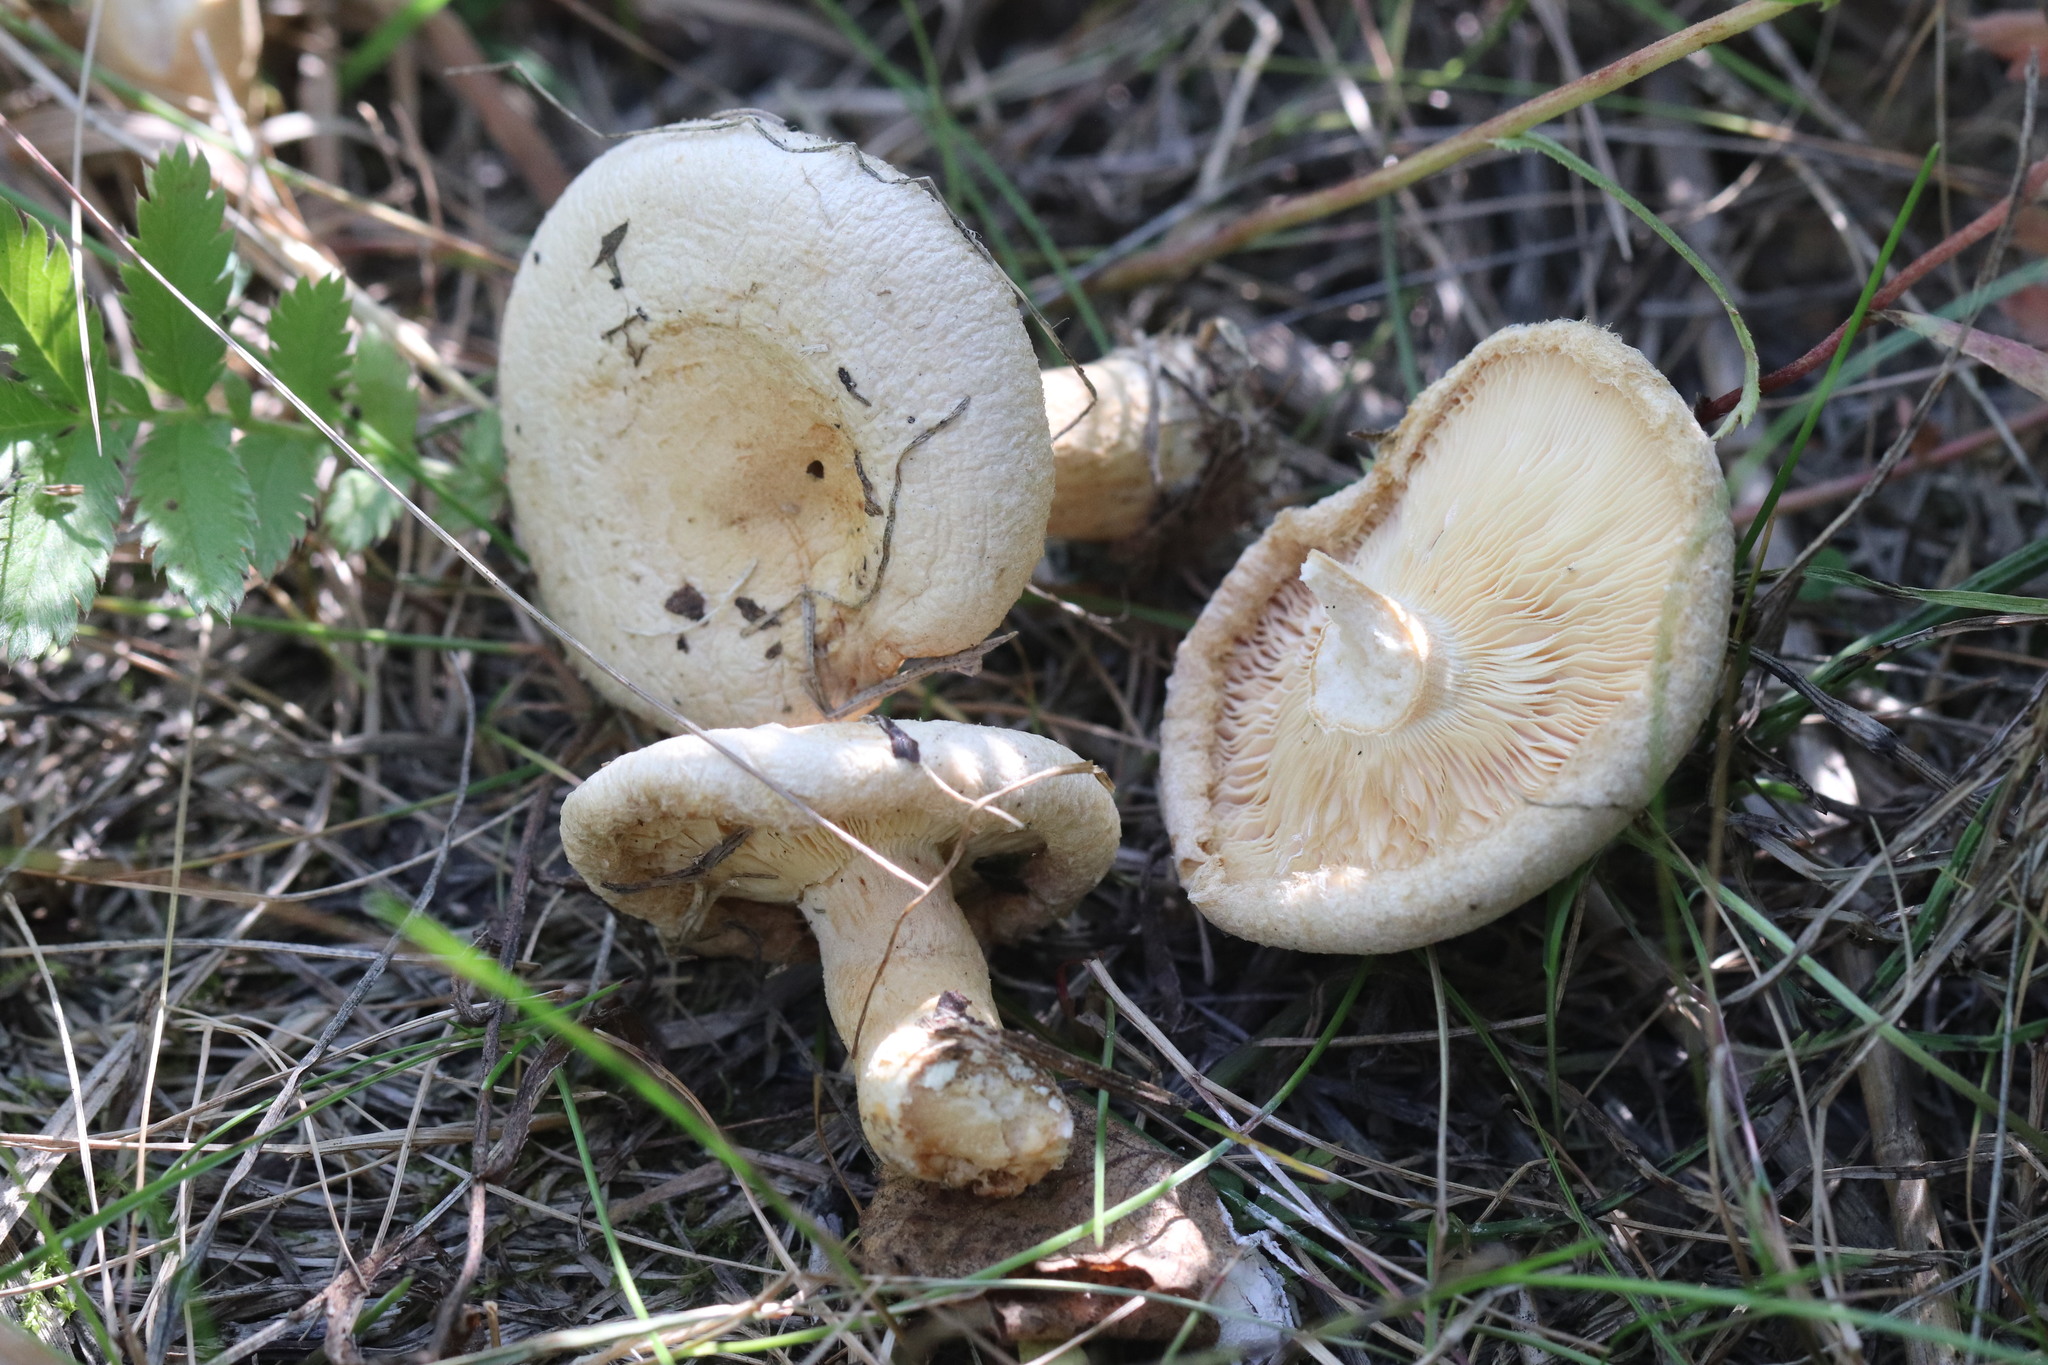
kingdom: Fungi
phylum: Basidiomycota
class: Agaricomycetes
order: Russulales
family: Russulaceae
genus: Lactarius
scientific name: Lactarius pubescens
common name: Bearded milkcap
